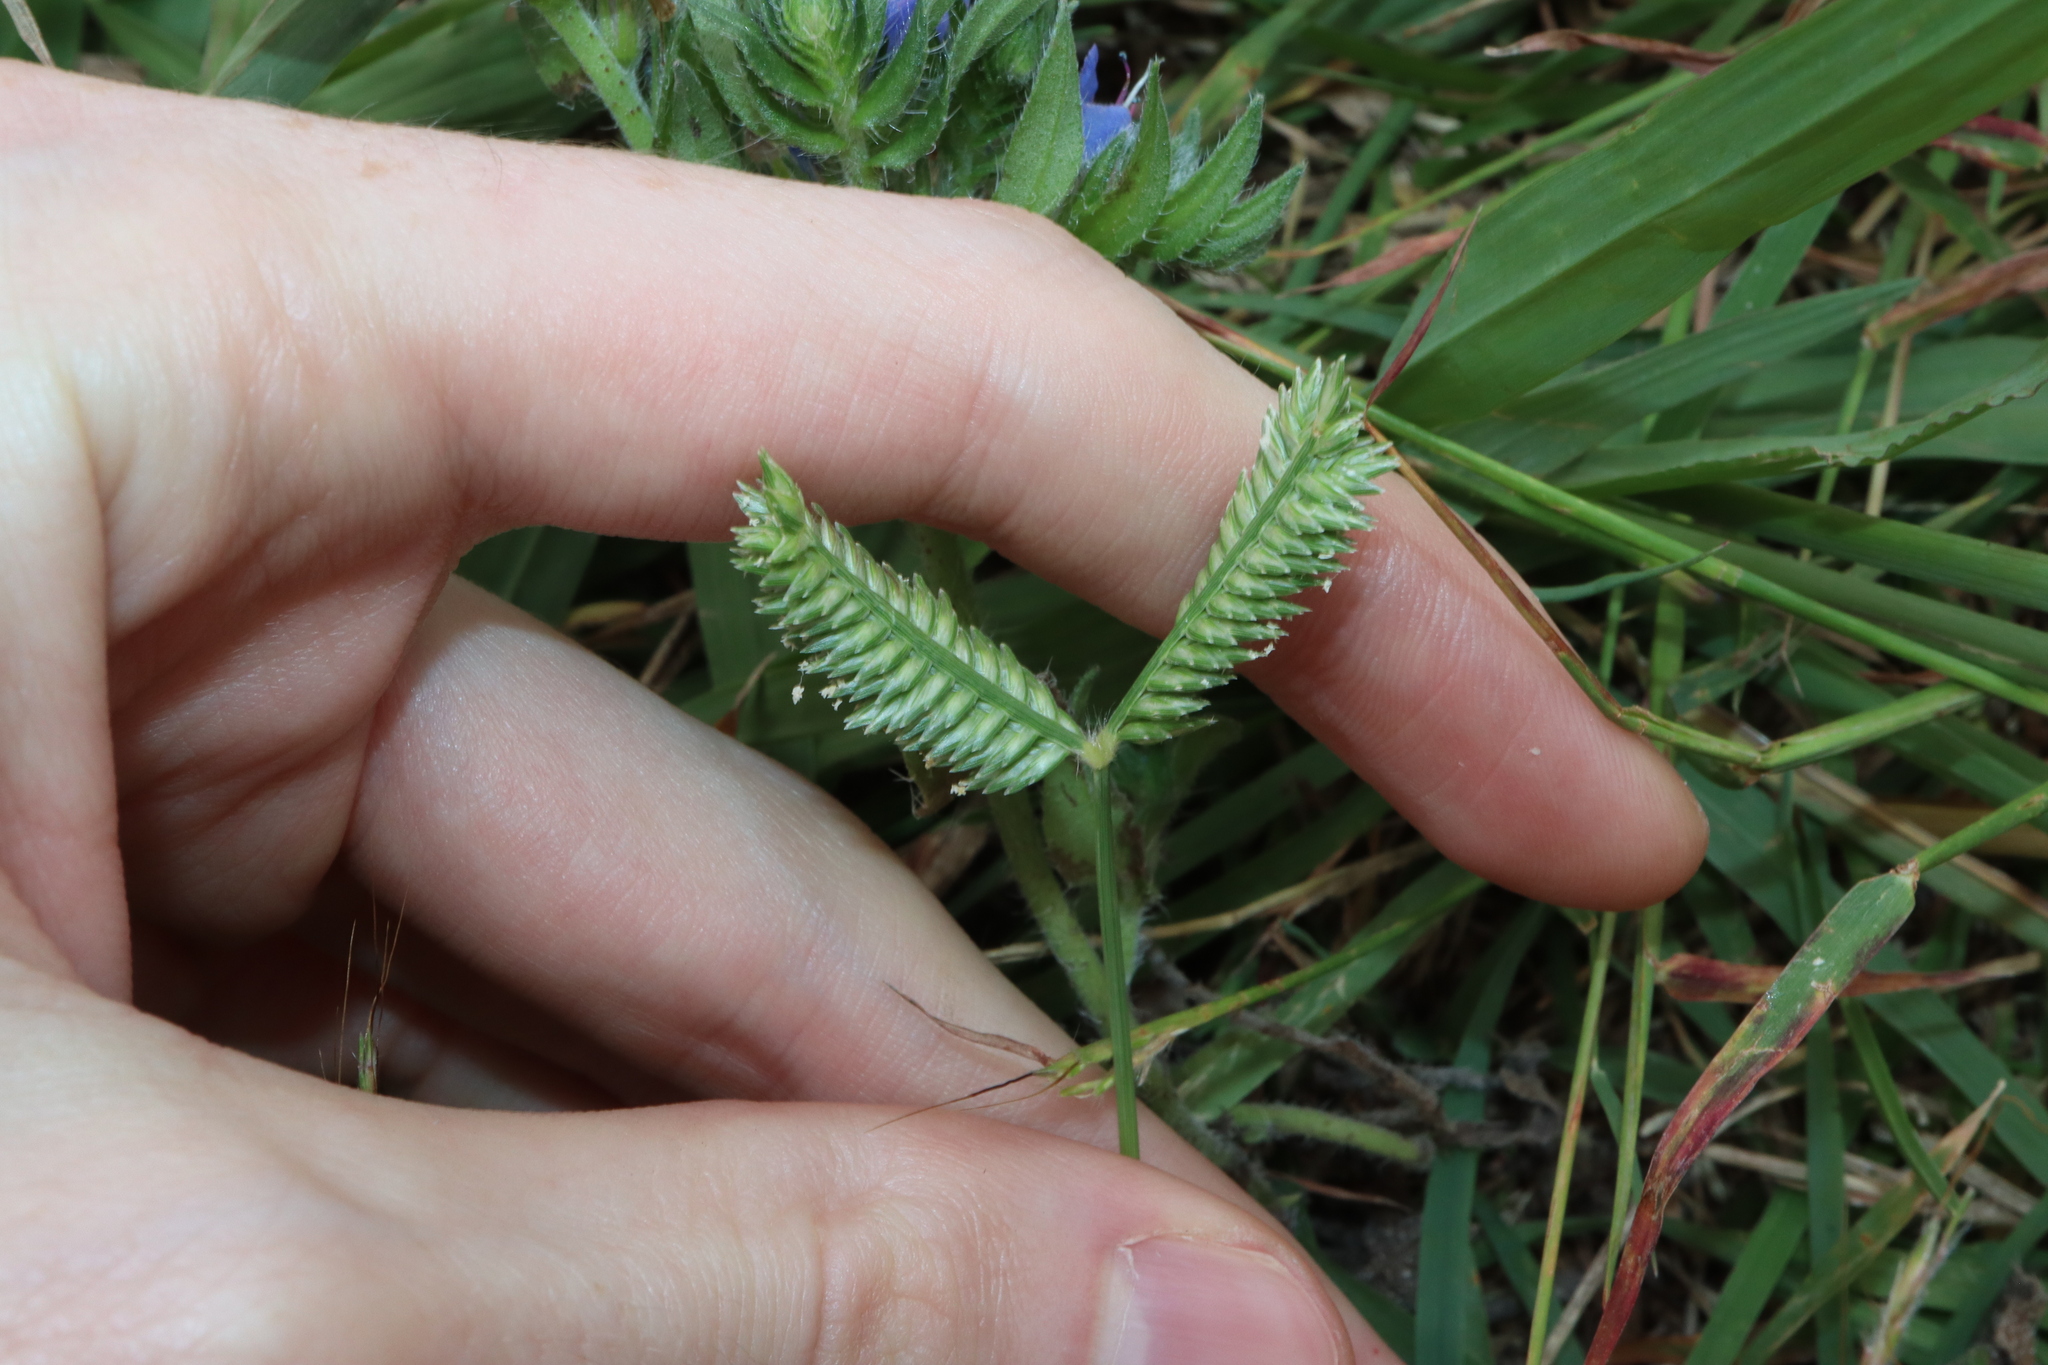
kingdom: Plantae
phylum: Tracheophyta
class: Liliopsida
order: Poales
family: Poaceae
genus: Eleusine
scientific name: Eleusine tristachya
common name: American yard-grass
